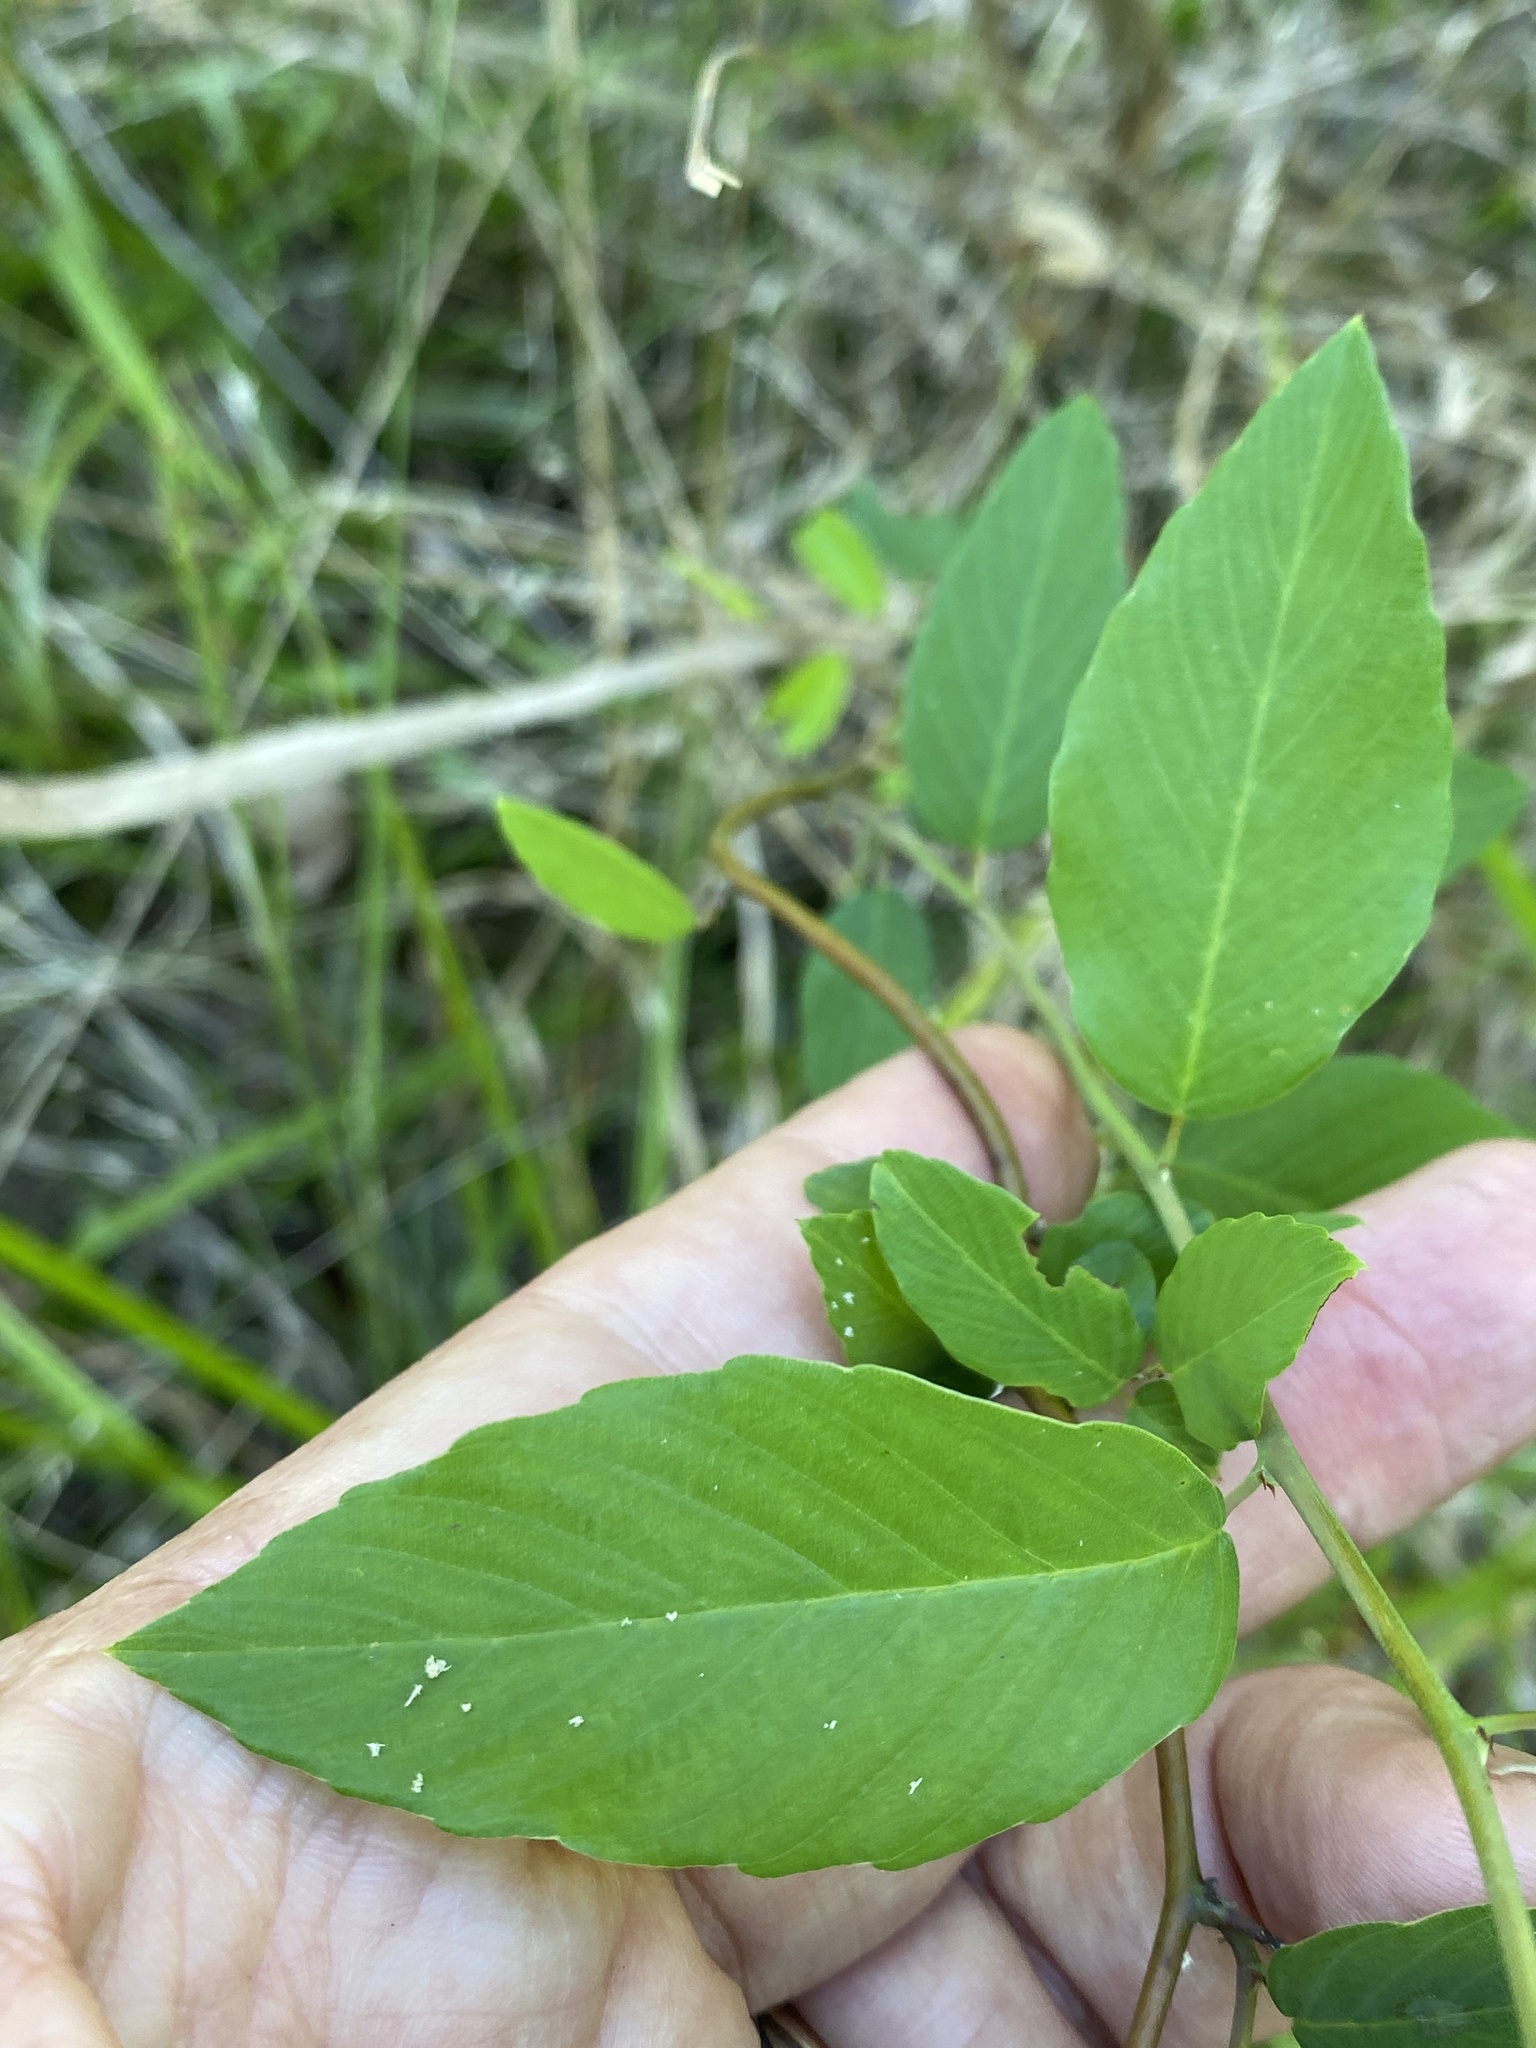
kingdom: Plantae
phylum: Tracheophyta
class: Magnoliopsida
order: Rosales
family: Rhamnaceae
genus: Berchemia
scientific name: Berchemia scandens
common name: Supplejack
